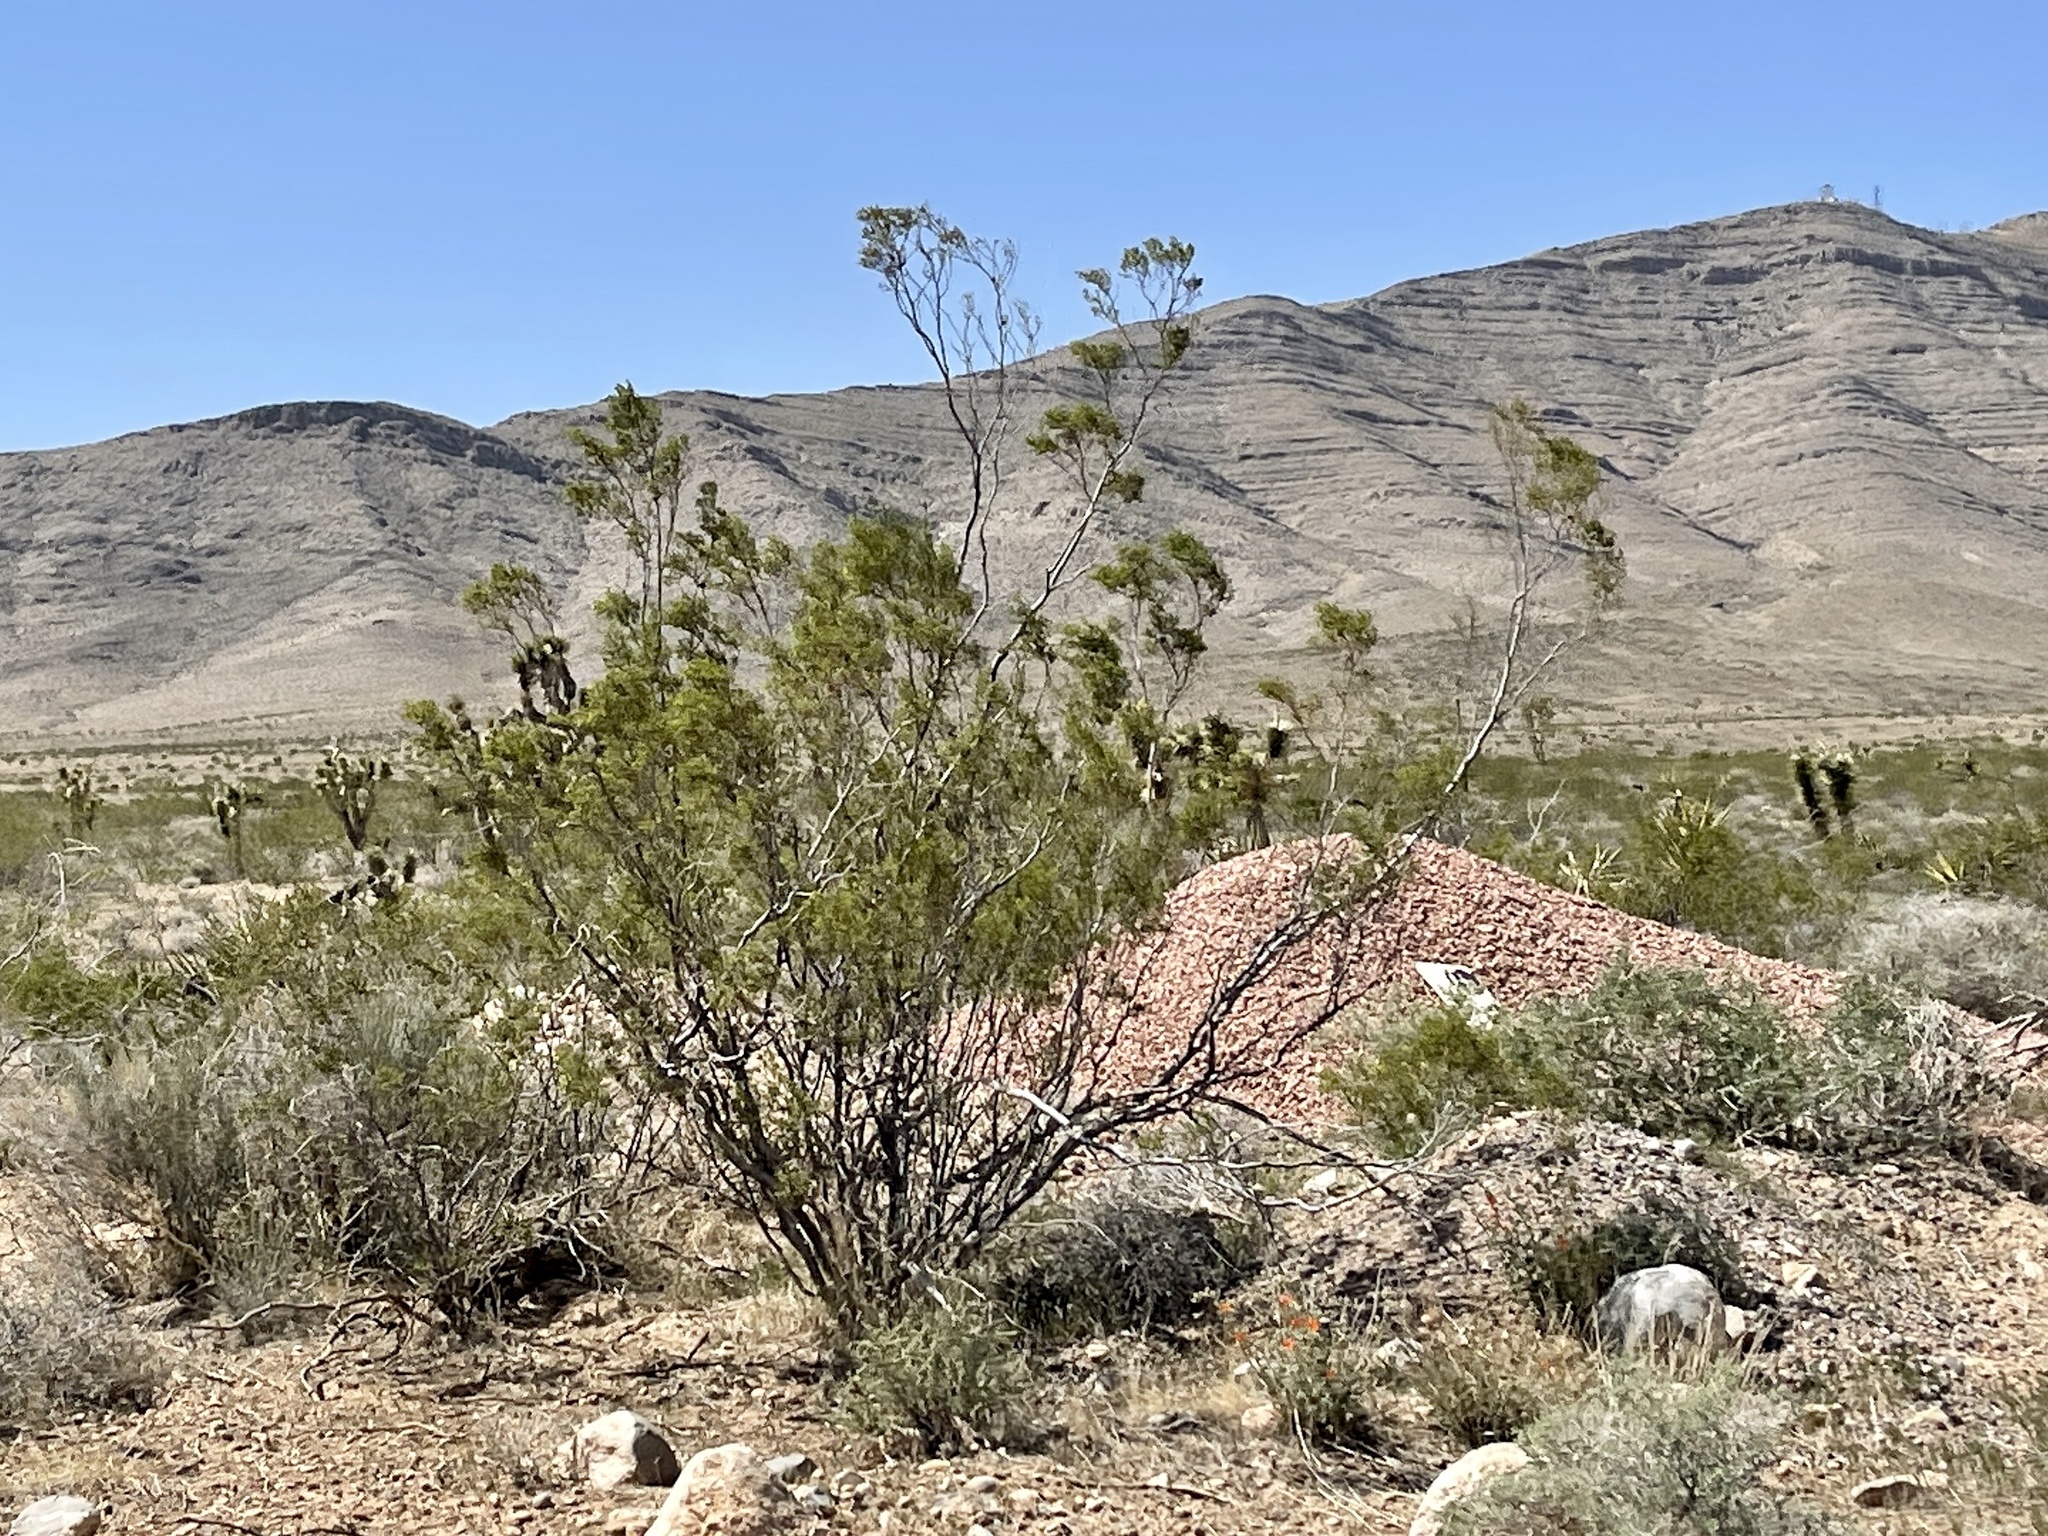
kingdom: Plantae
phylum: Tracheophyta
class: Magnoliopsida
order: Zygophyllales
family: Zygophyllaceae
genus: Larrea
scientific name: Larrea tridentata
